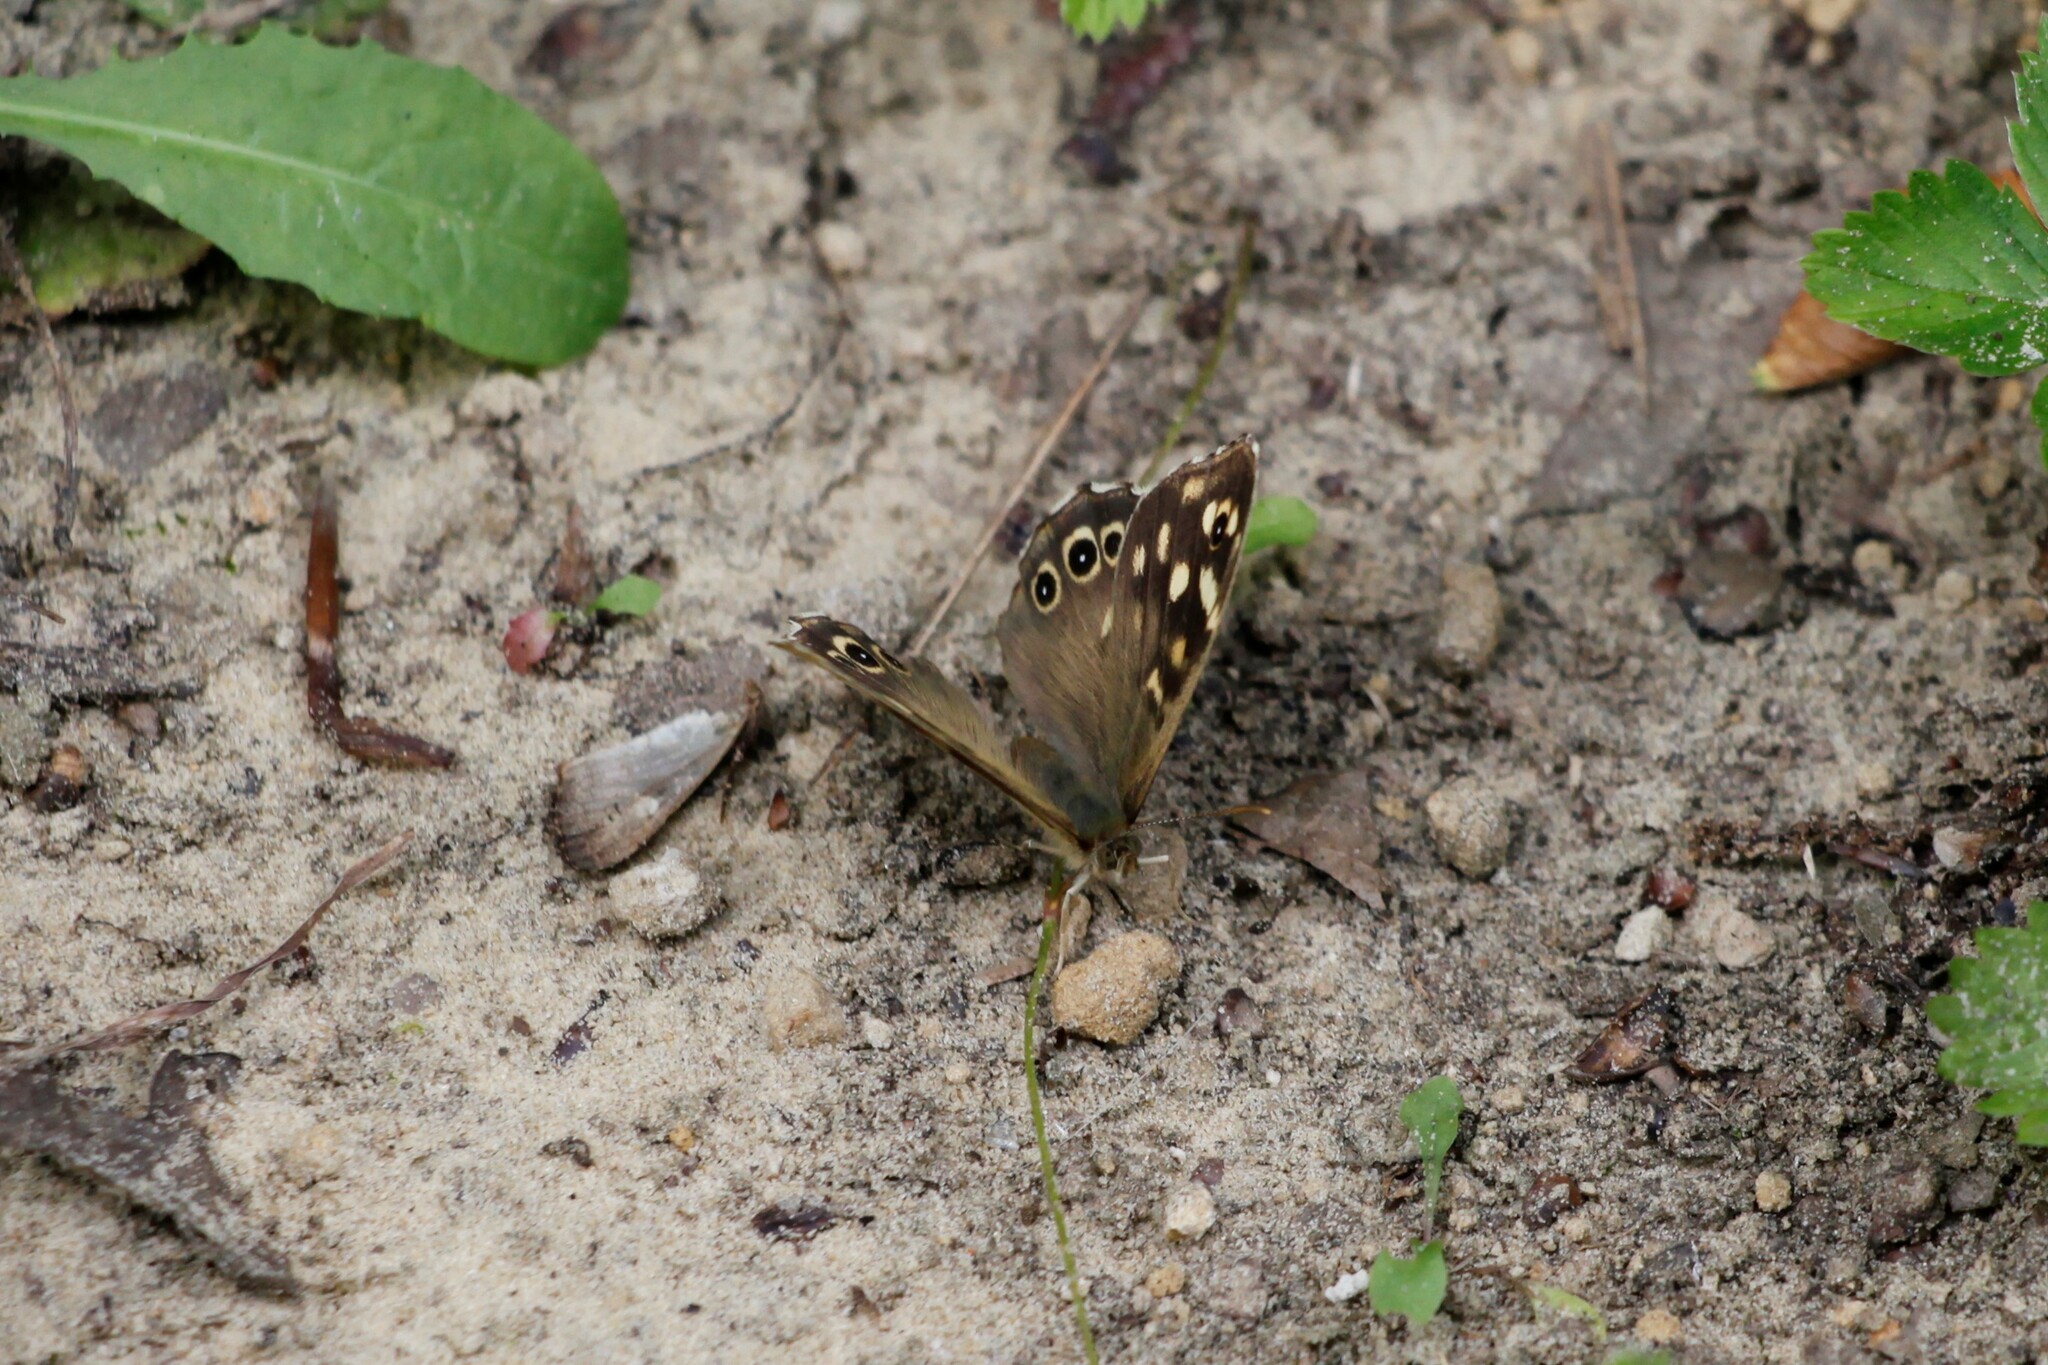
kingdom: Animalia
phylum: Arthropoda
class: Insecta
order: Lepidoptera
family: Nymphalidae
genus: Pararge
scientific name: Pararge aegeria
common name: Speckled wood
